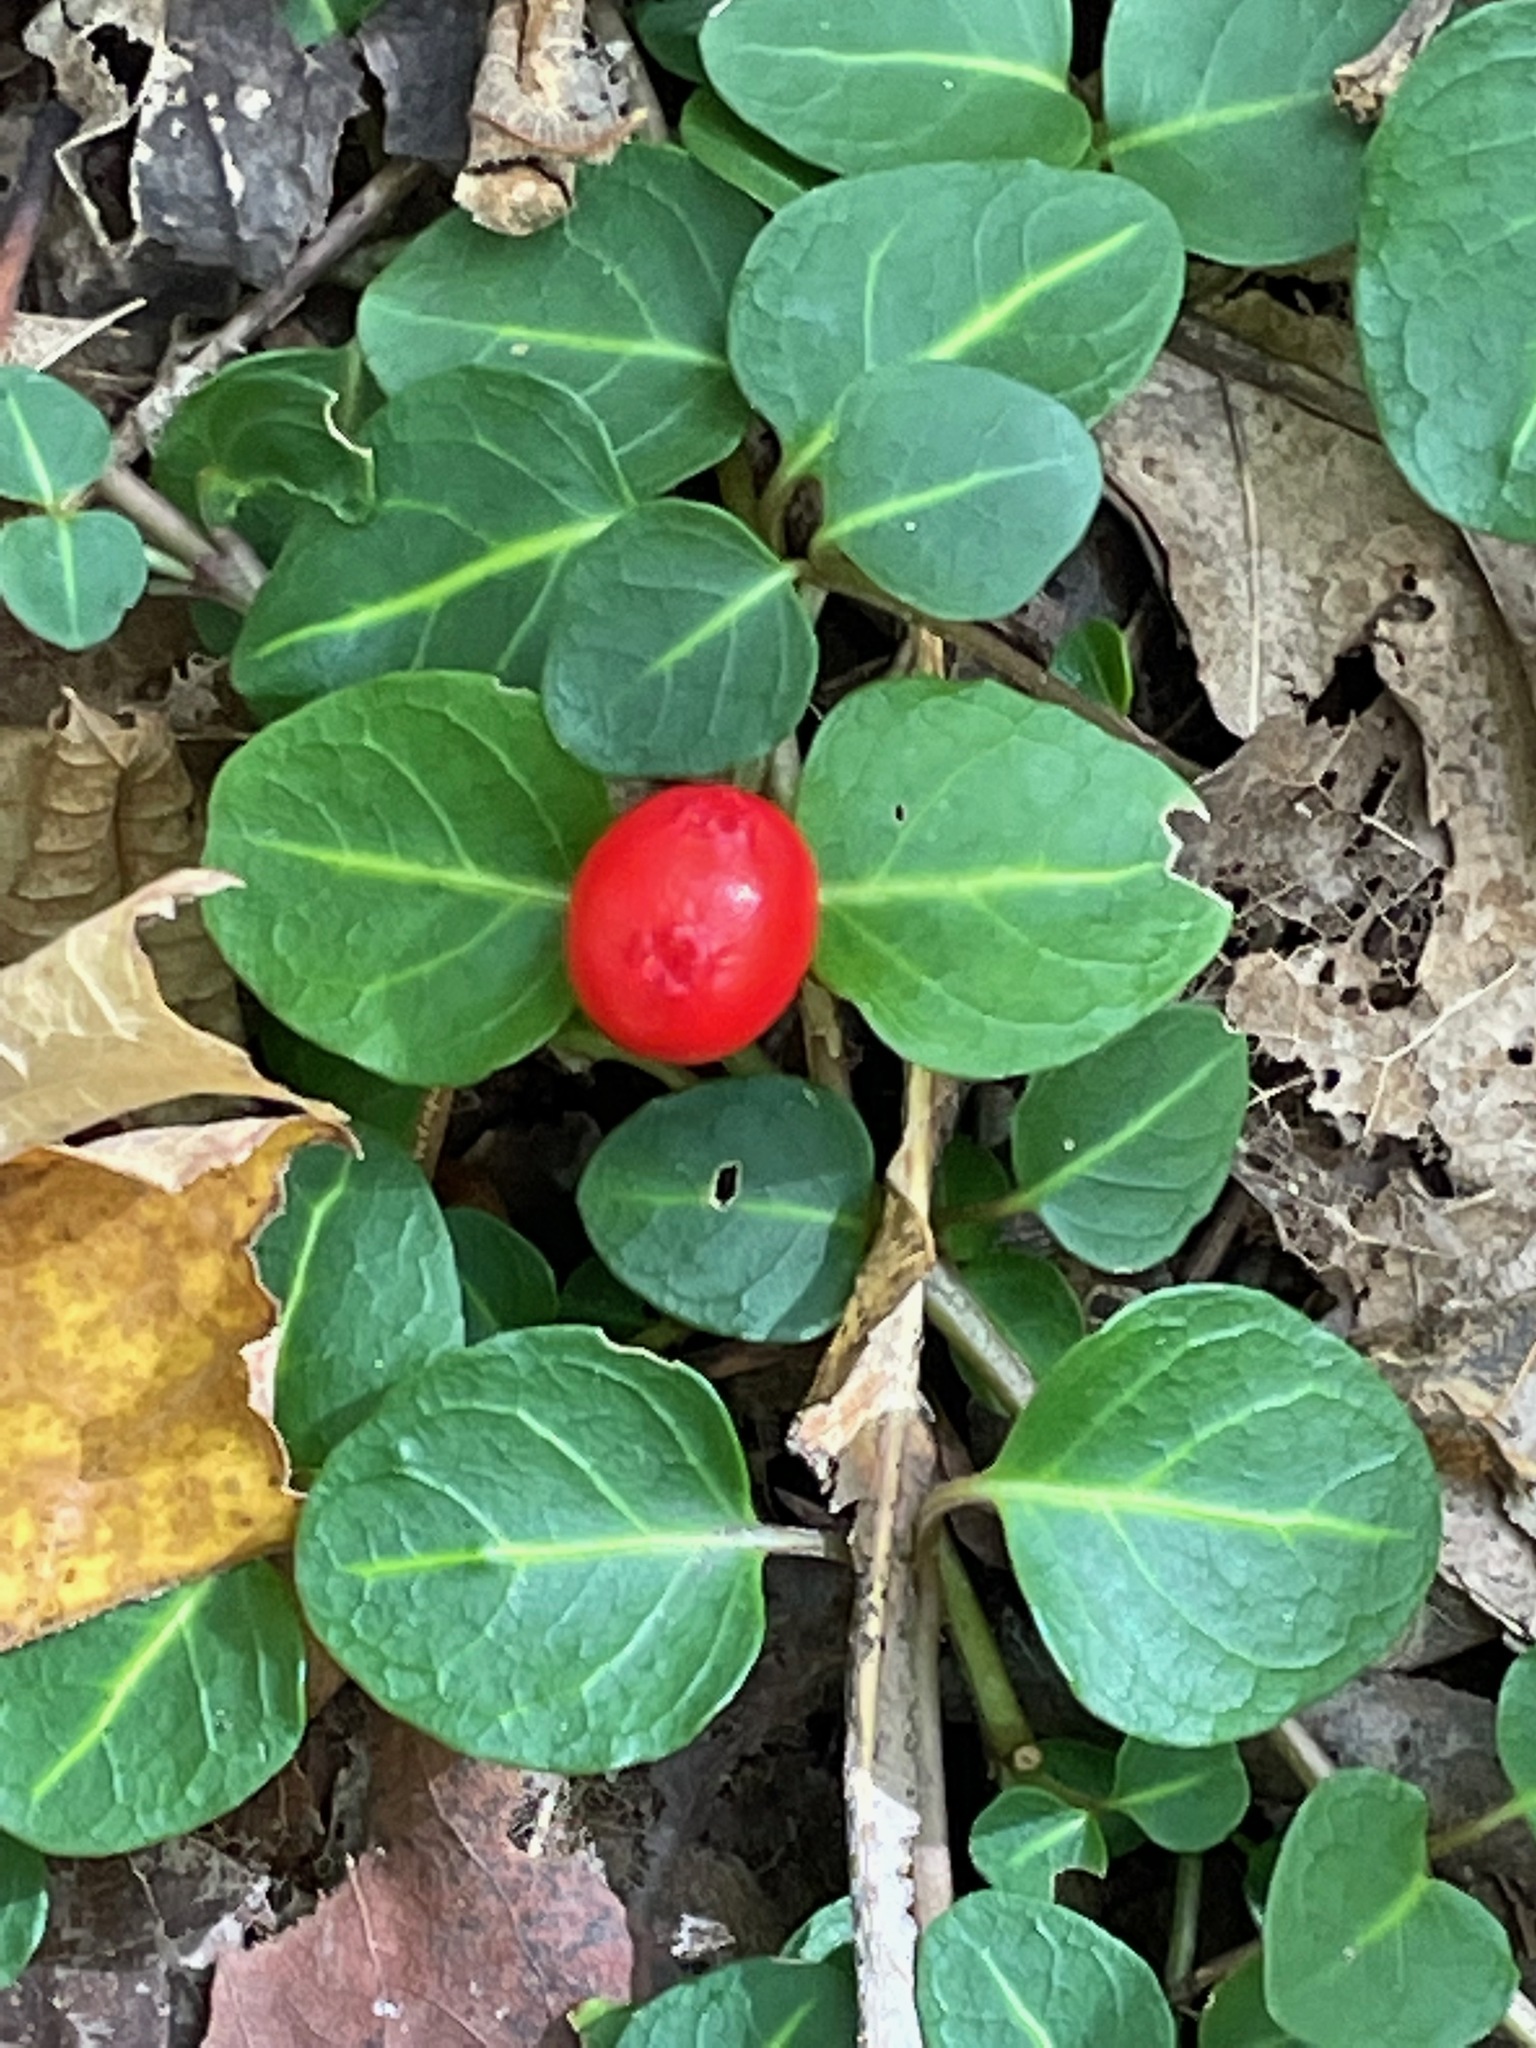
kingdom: Plantae
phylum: Tracheophyta
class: Magnoliopsida
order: Gentianales
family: Rubiaceae
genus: Mitchella
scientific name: Mitchella repens
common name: Partridge-berry
